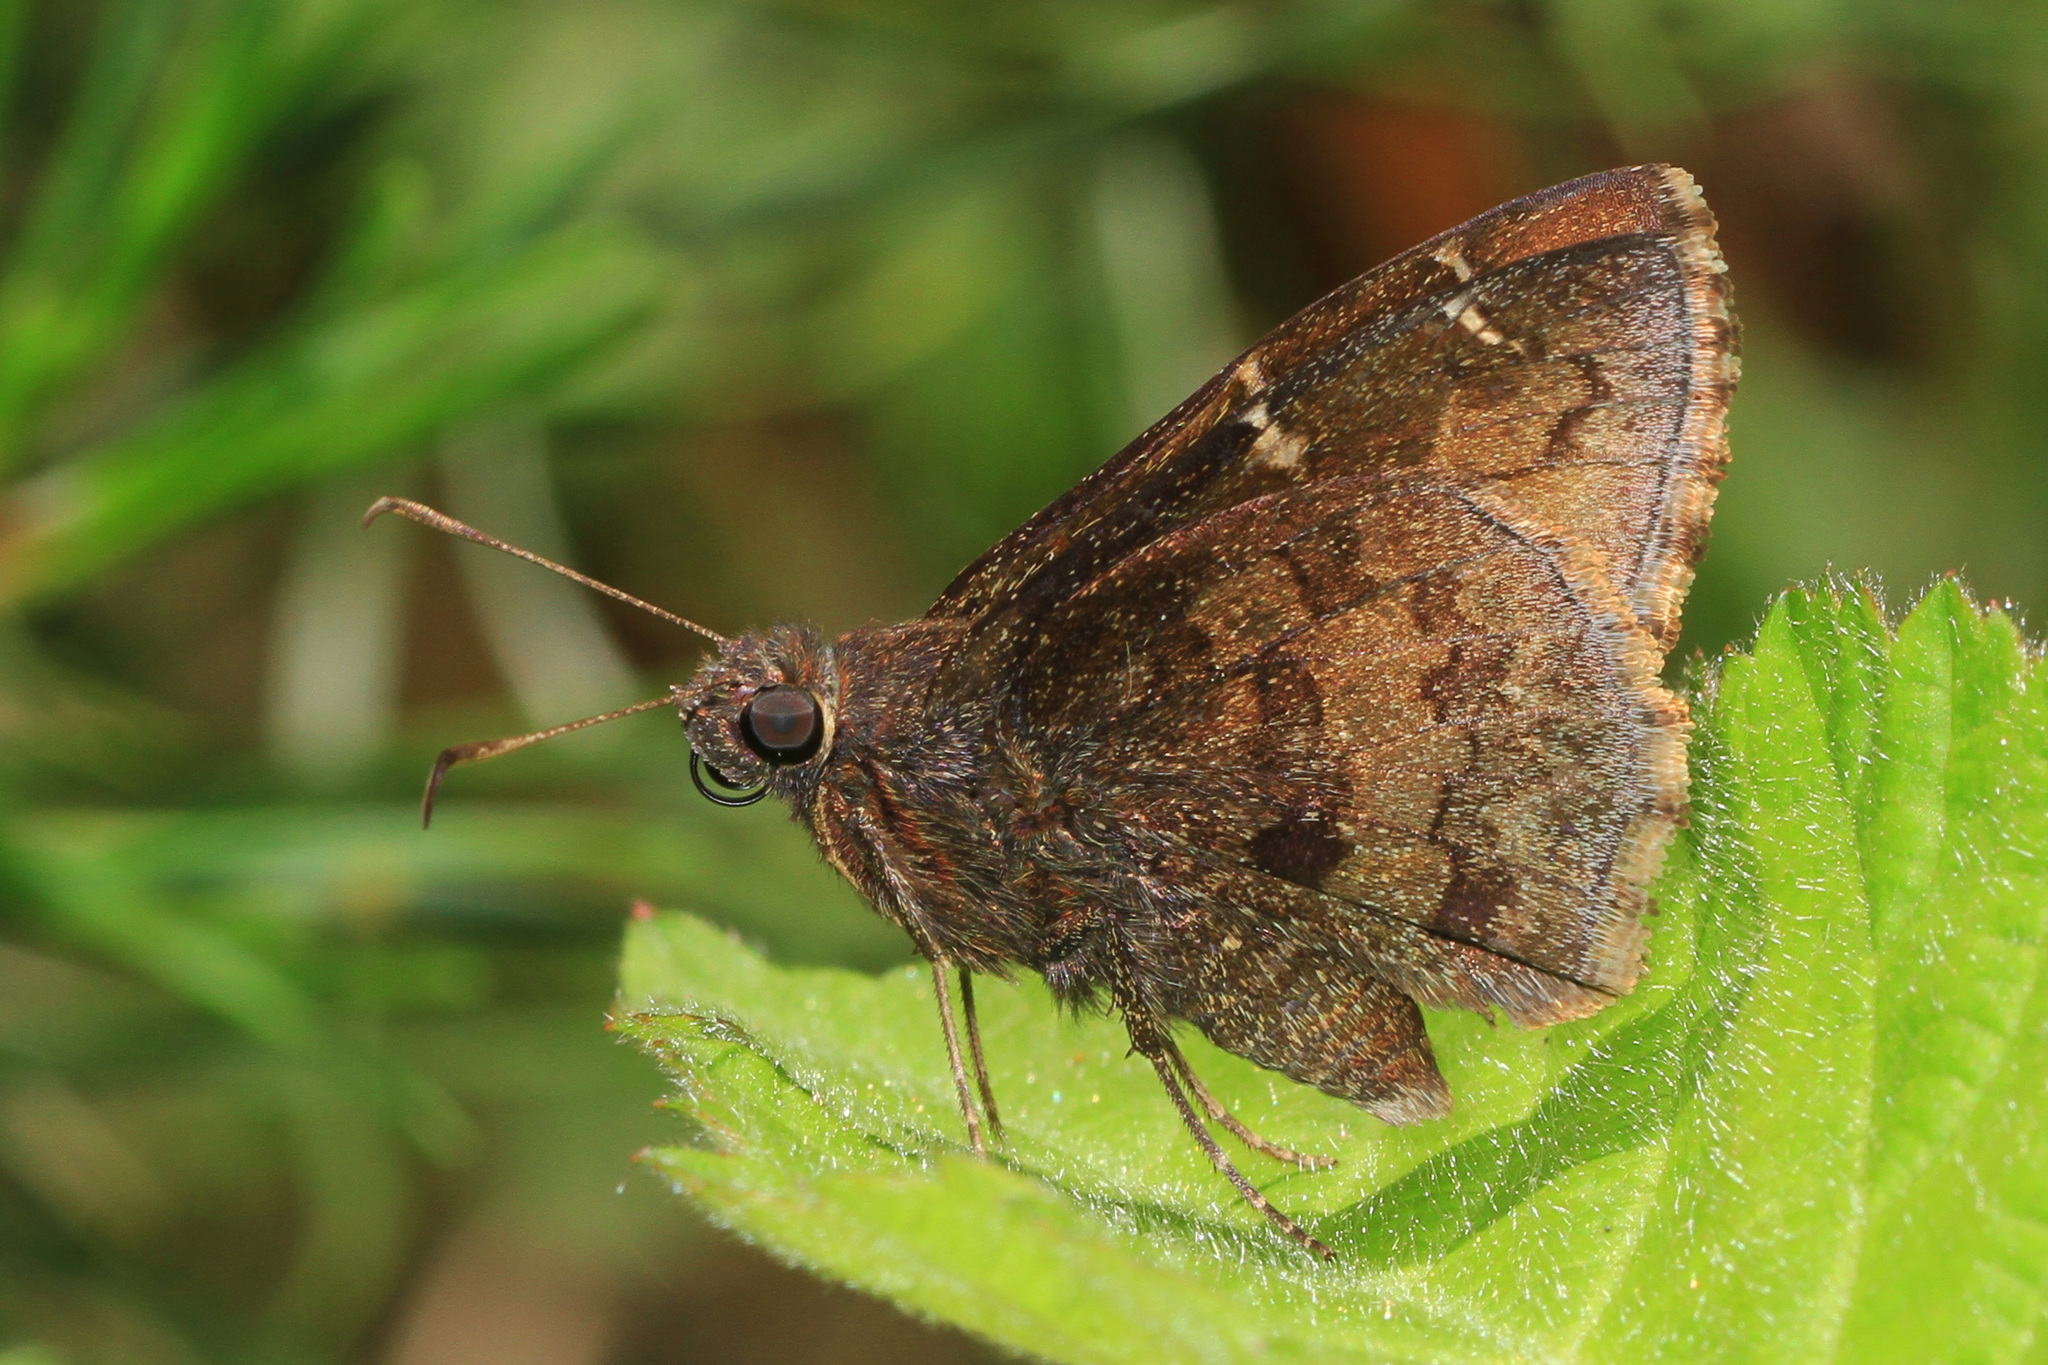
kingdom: Animalia
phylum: Arthropoda
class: Insecta
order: Lepidoptera
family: Hesperiidae
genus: Thorybes
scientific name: Thorybes pylades
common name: Northern cloudywing
